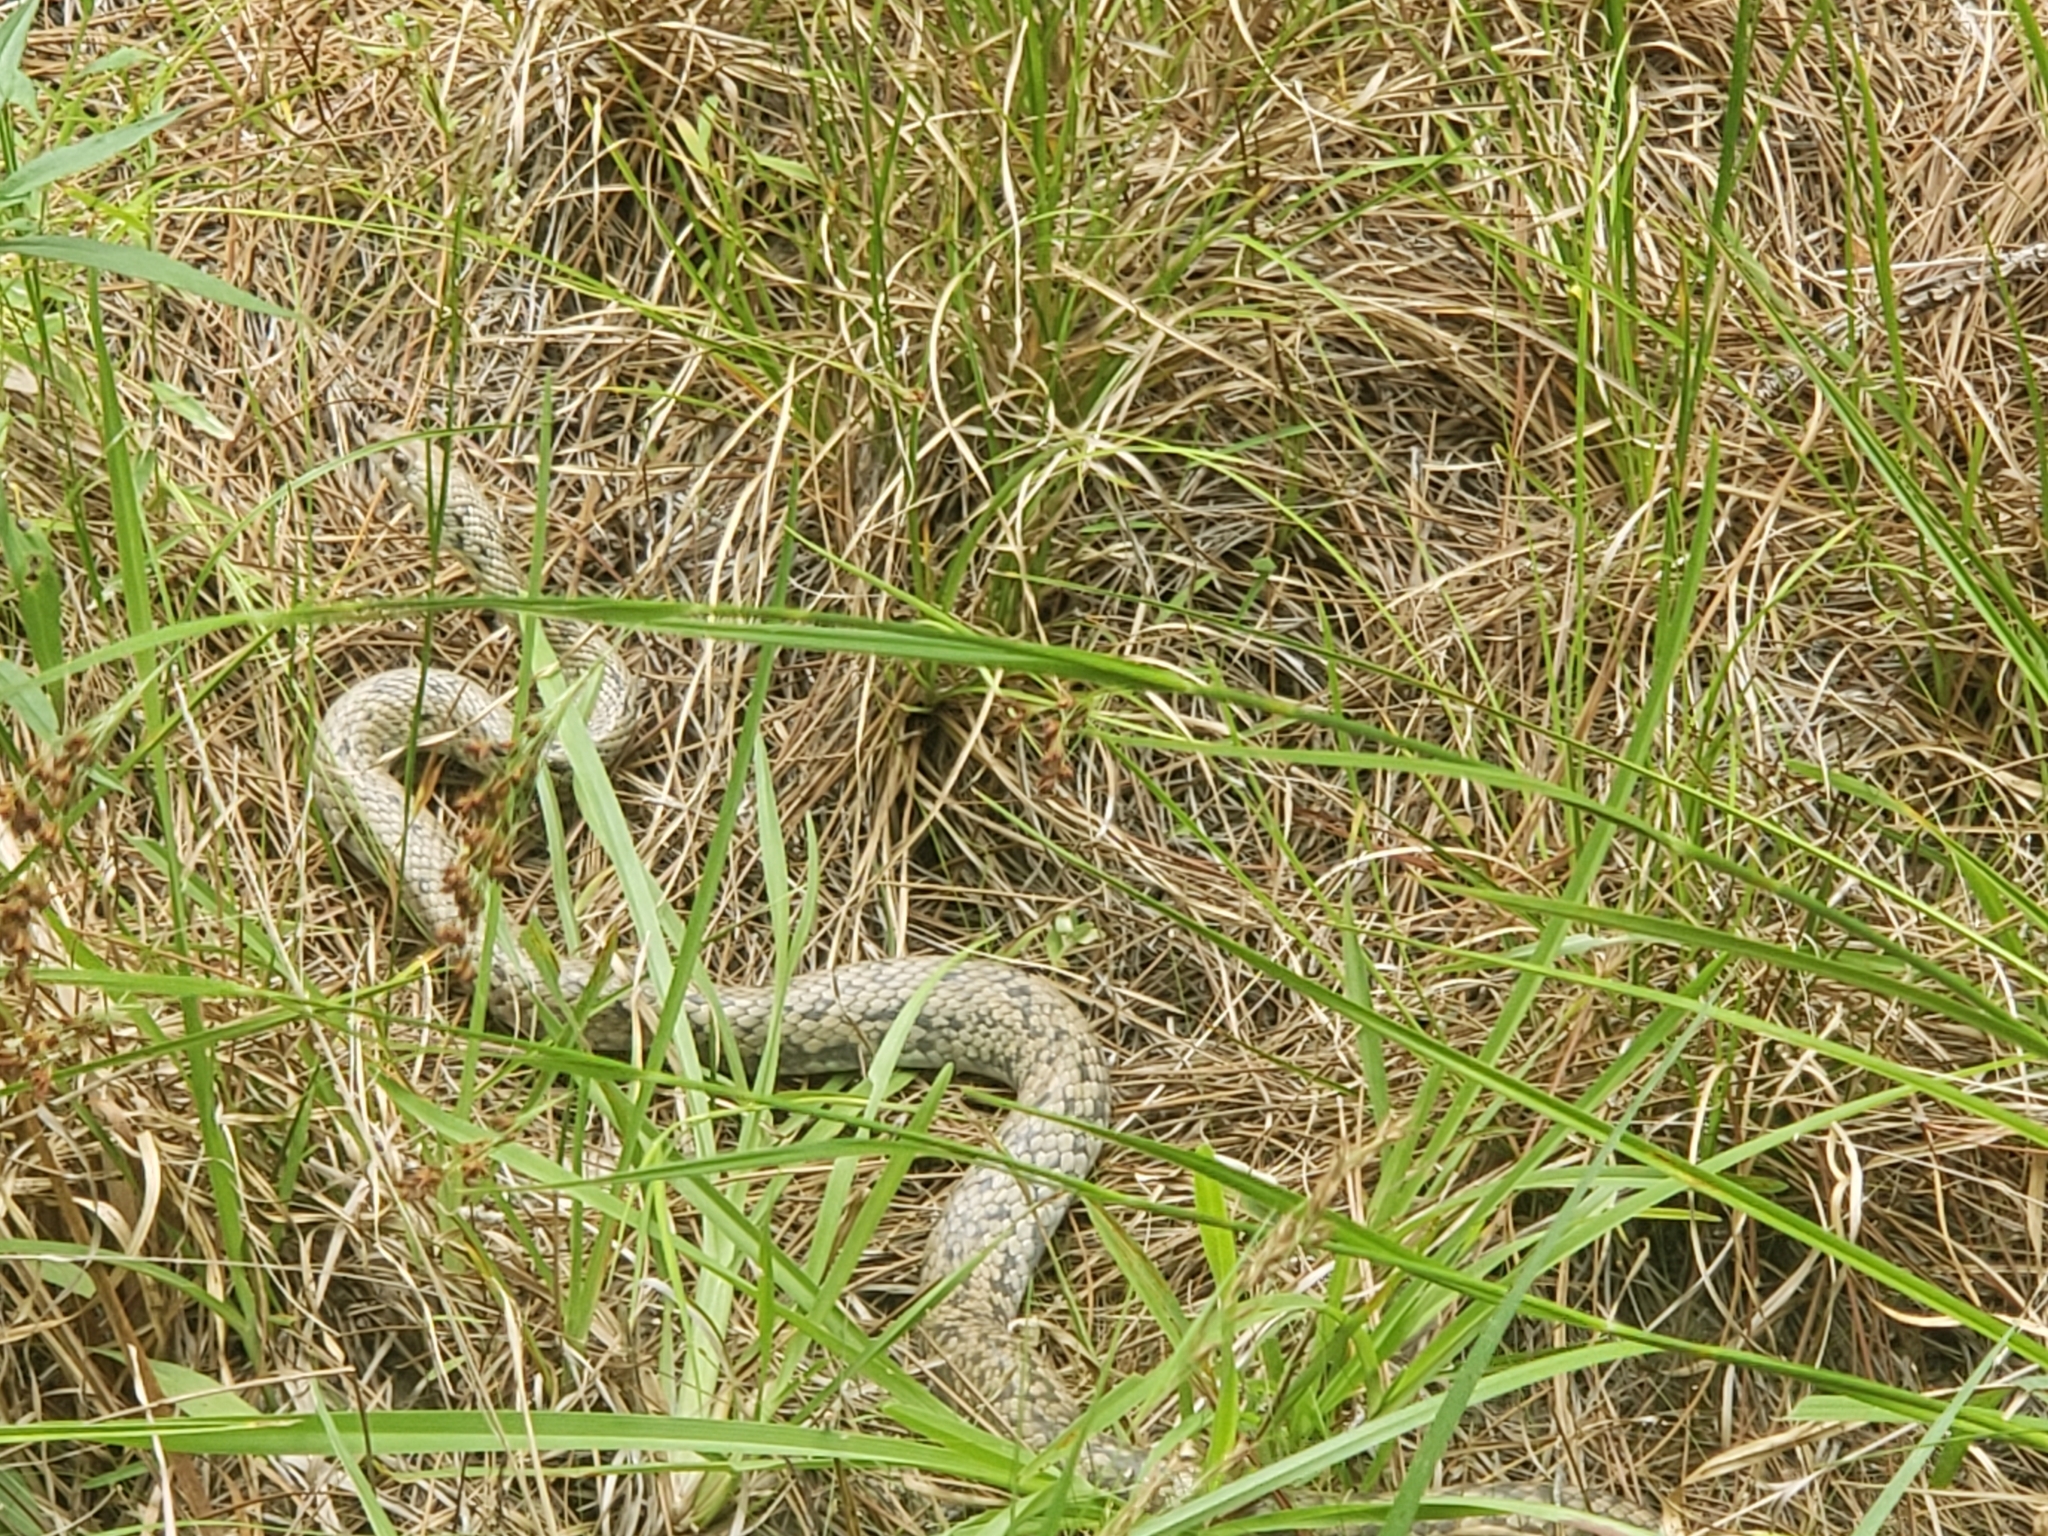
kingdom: Animalia
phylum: Chordata
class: Squamata
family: Colubridae
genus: Coluber
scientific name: Coluber constrictor
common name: Eastern racer
